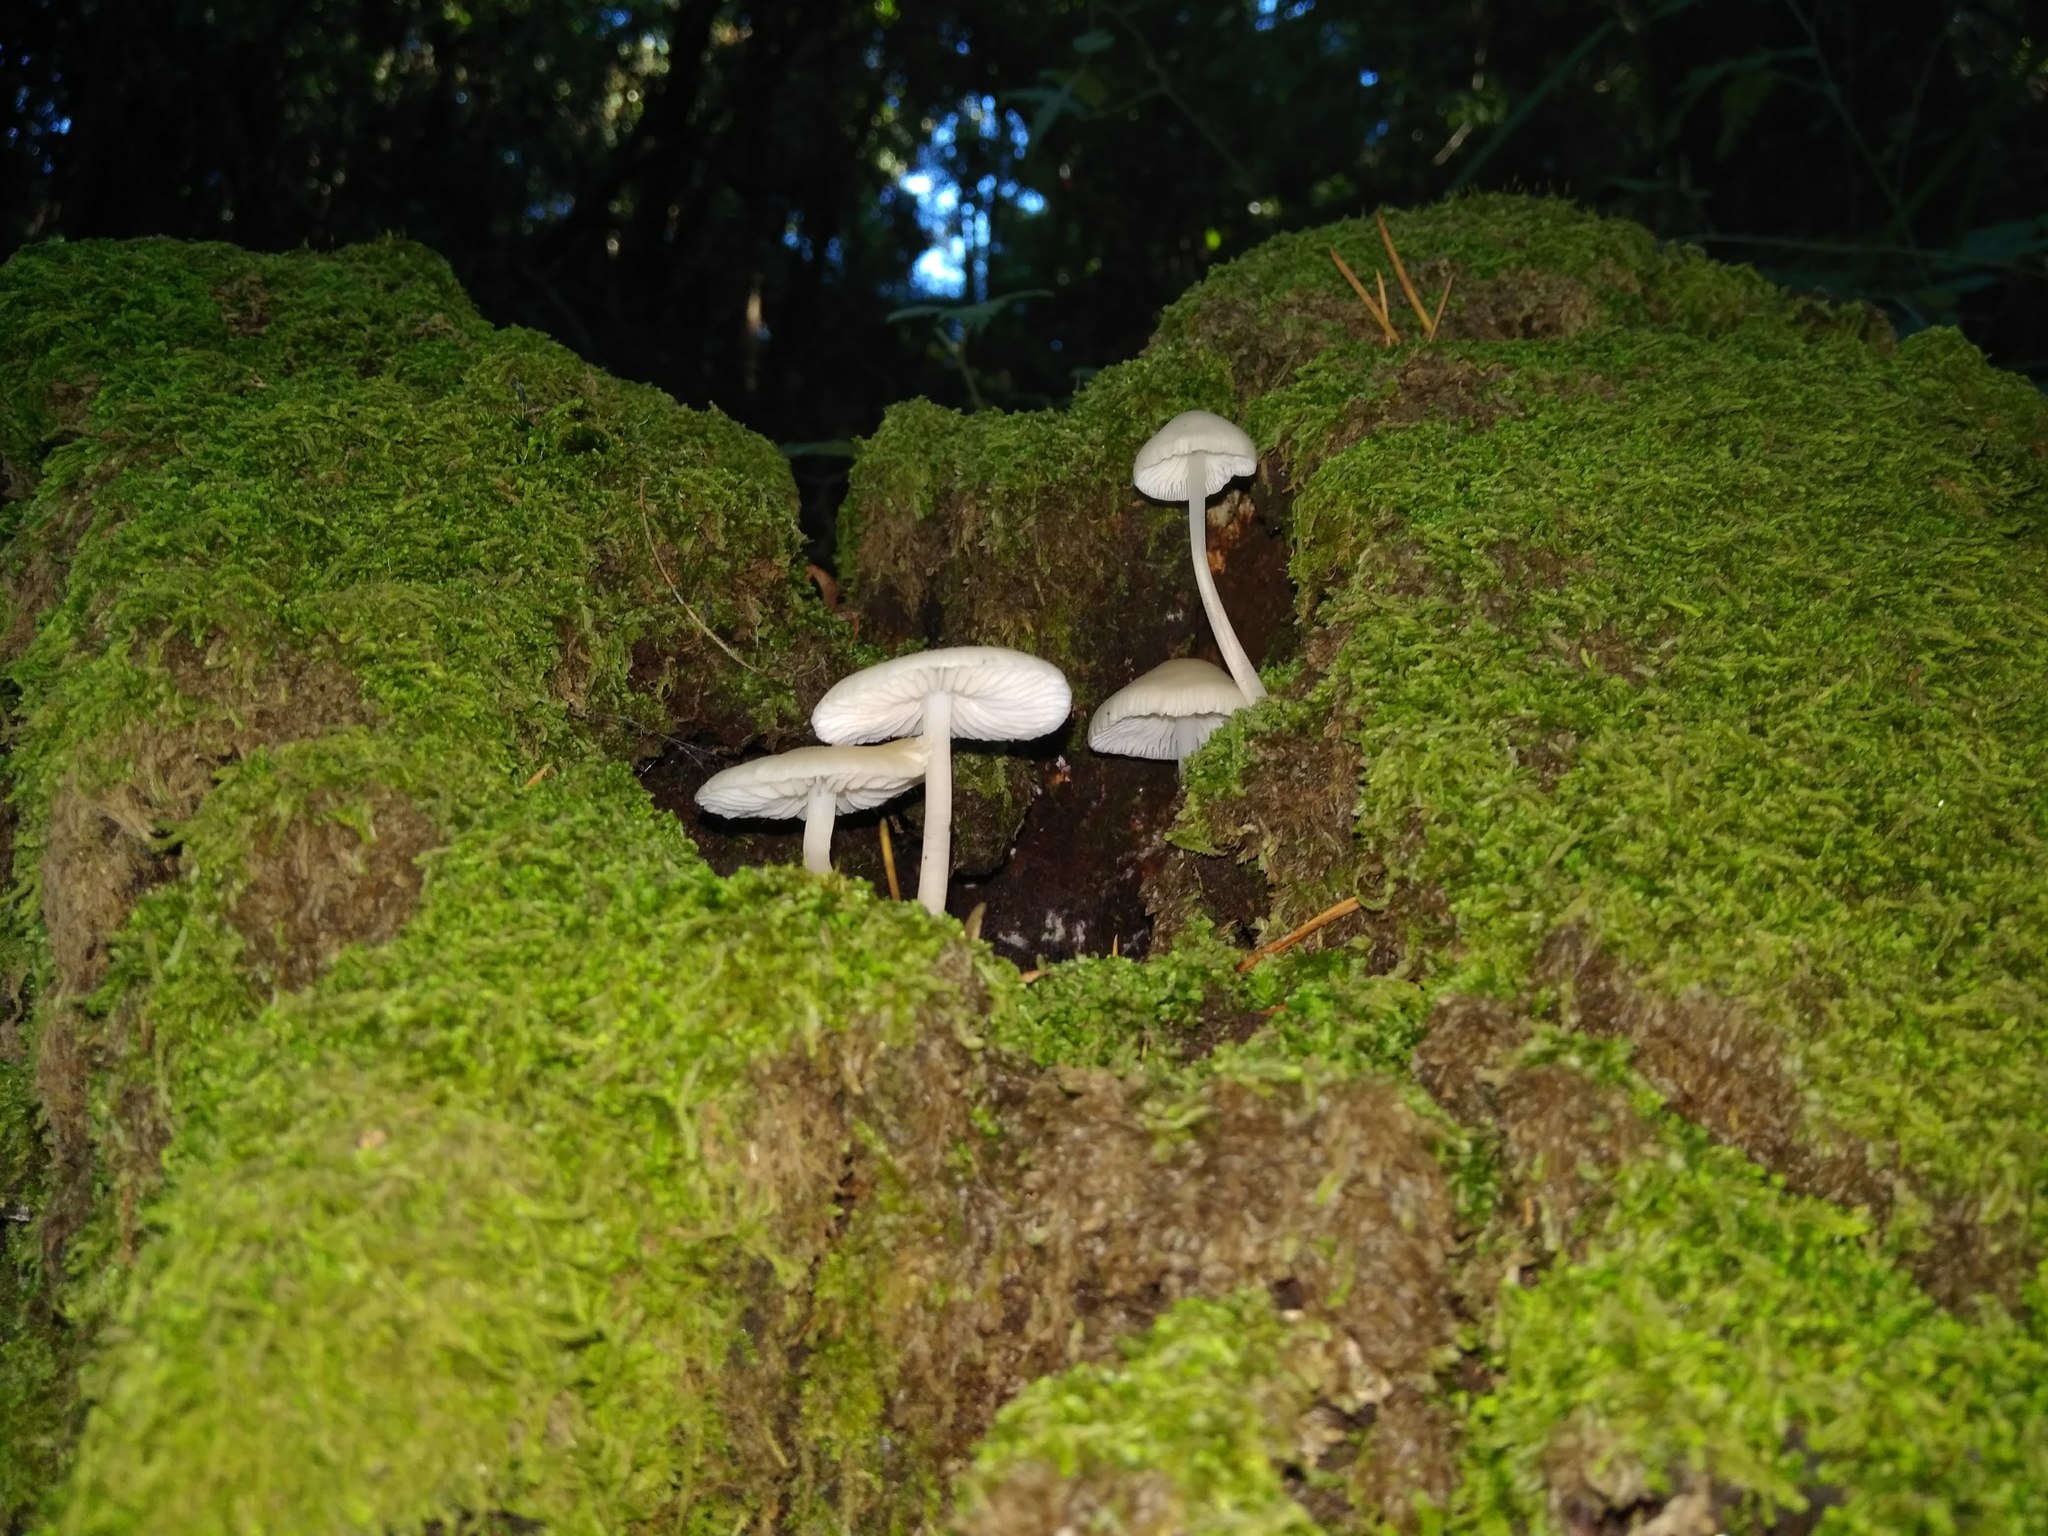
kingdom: Fungi
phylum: Basidiomycota
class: Agaricomycetes
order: Agaricales
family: Mycenaceae
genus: Mycena
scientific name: Mycena galericulata
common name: Bonnet mycena
